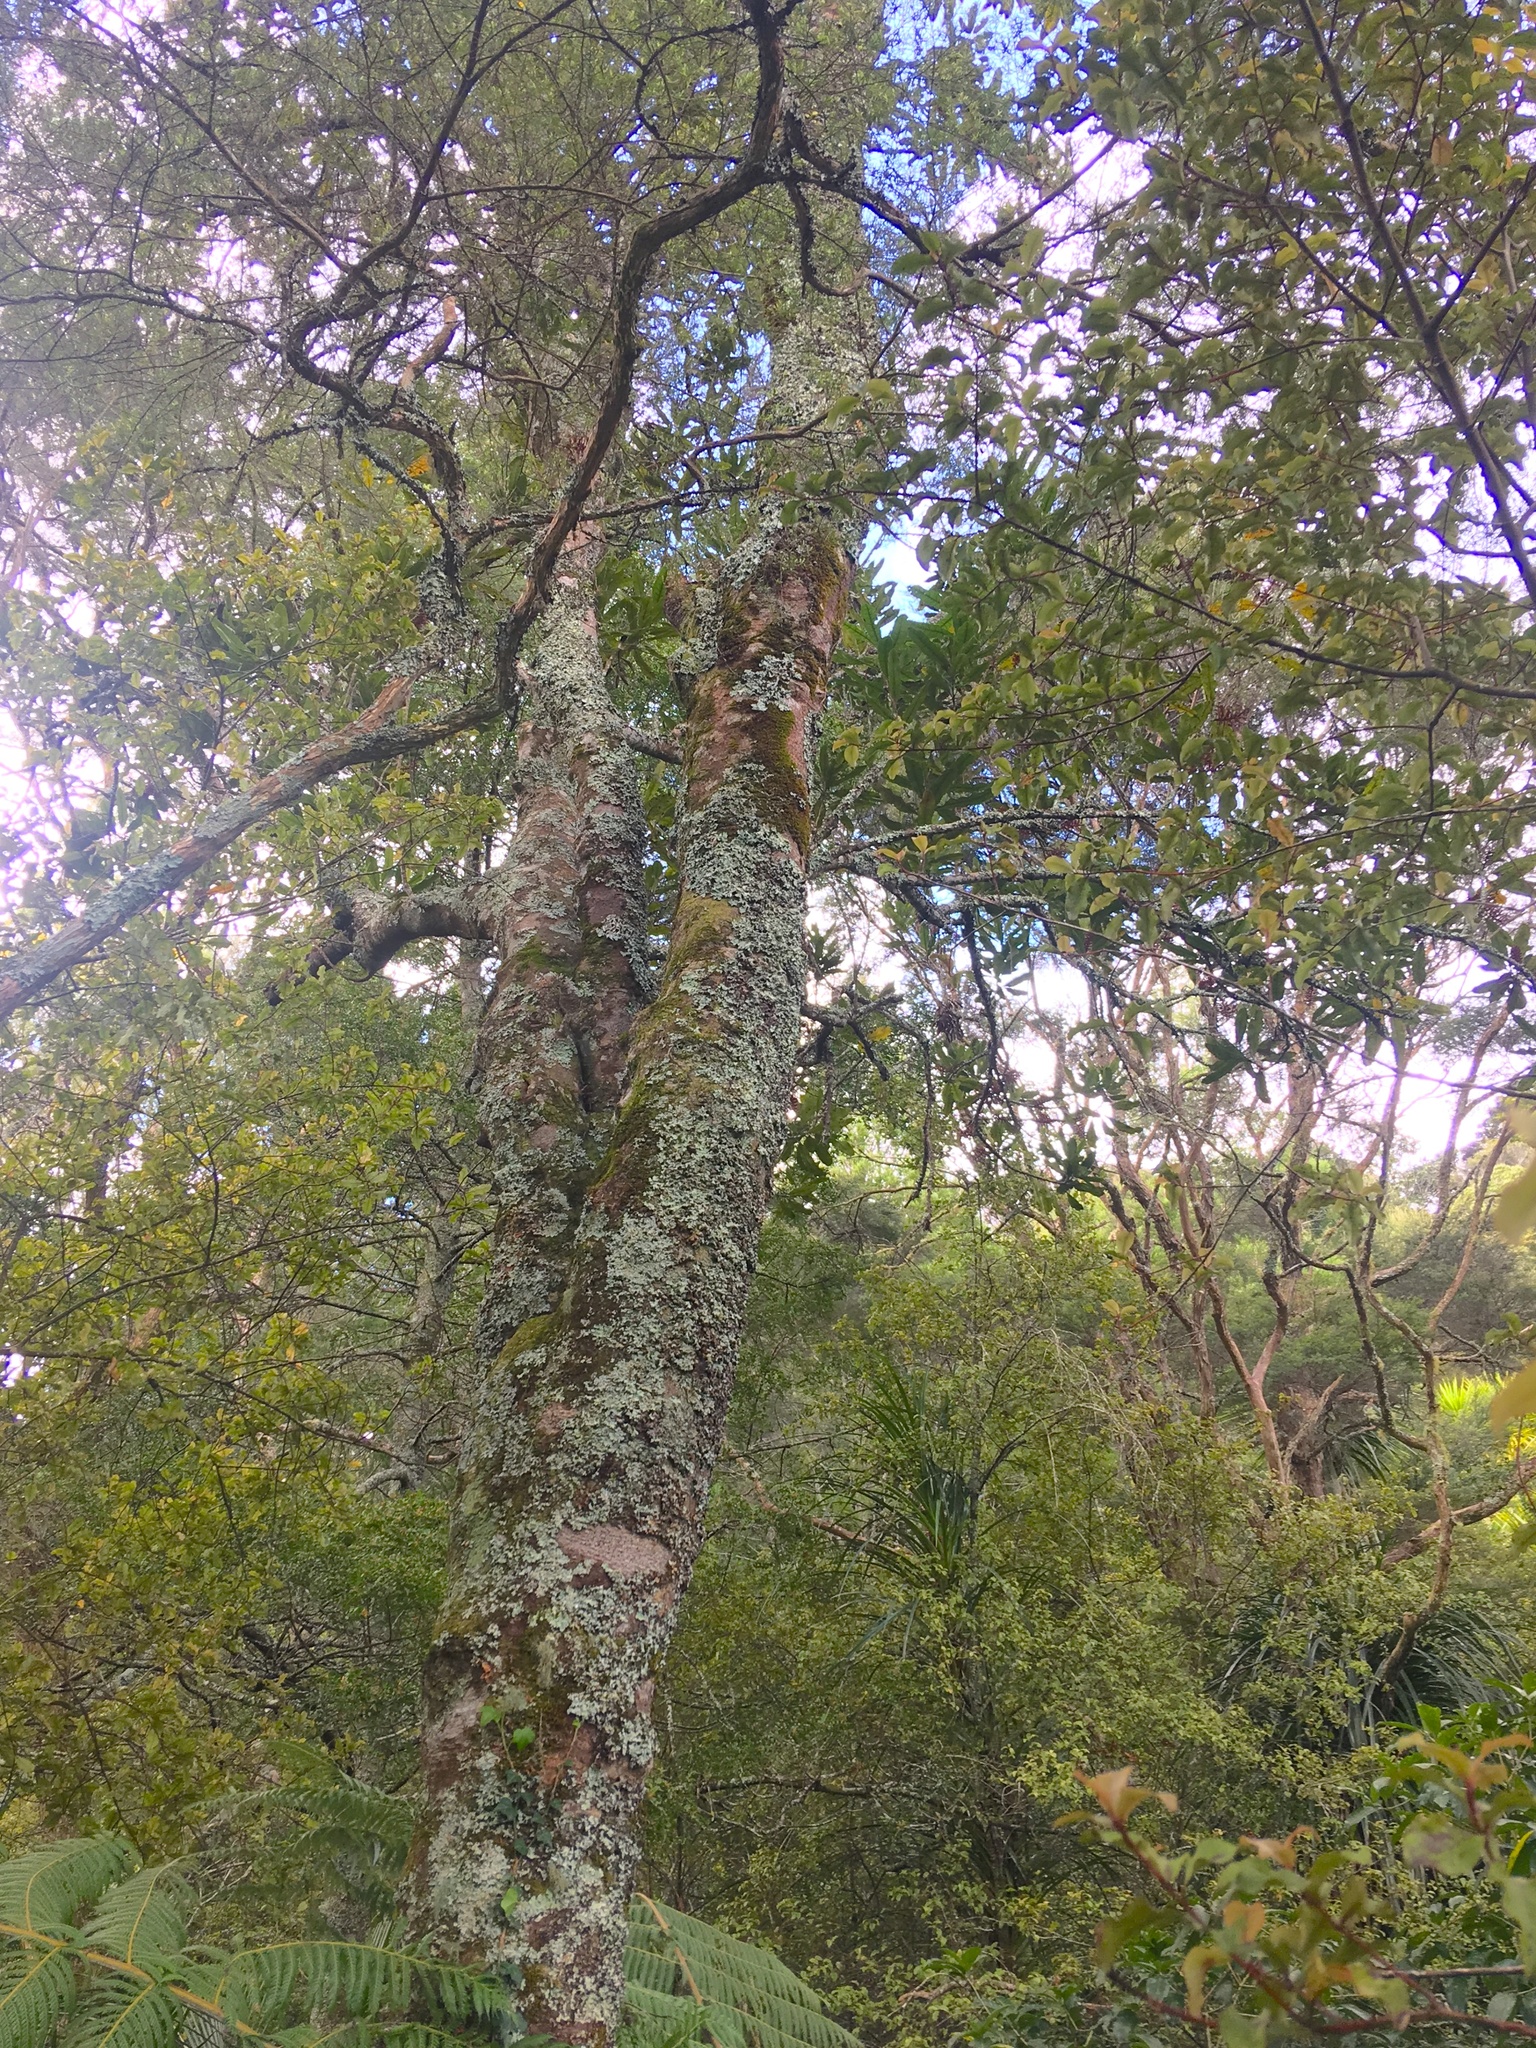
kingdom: Plantae
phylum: Tracheophyta
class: Magnoliopsida
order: Proteales
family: Proteaceae
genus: Knightia
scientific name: Knightia excelsa
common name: New zealand-honeysuckle
